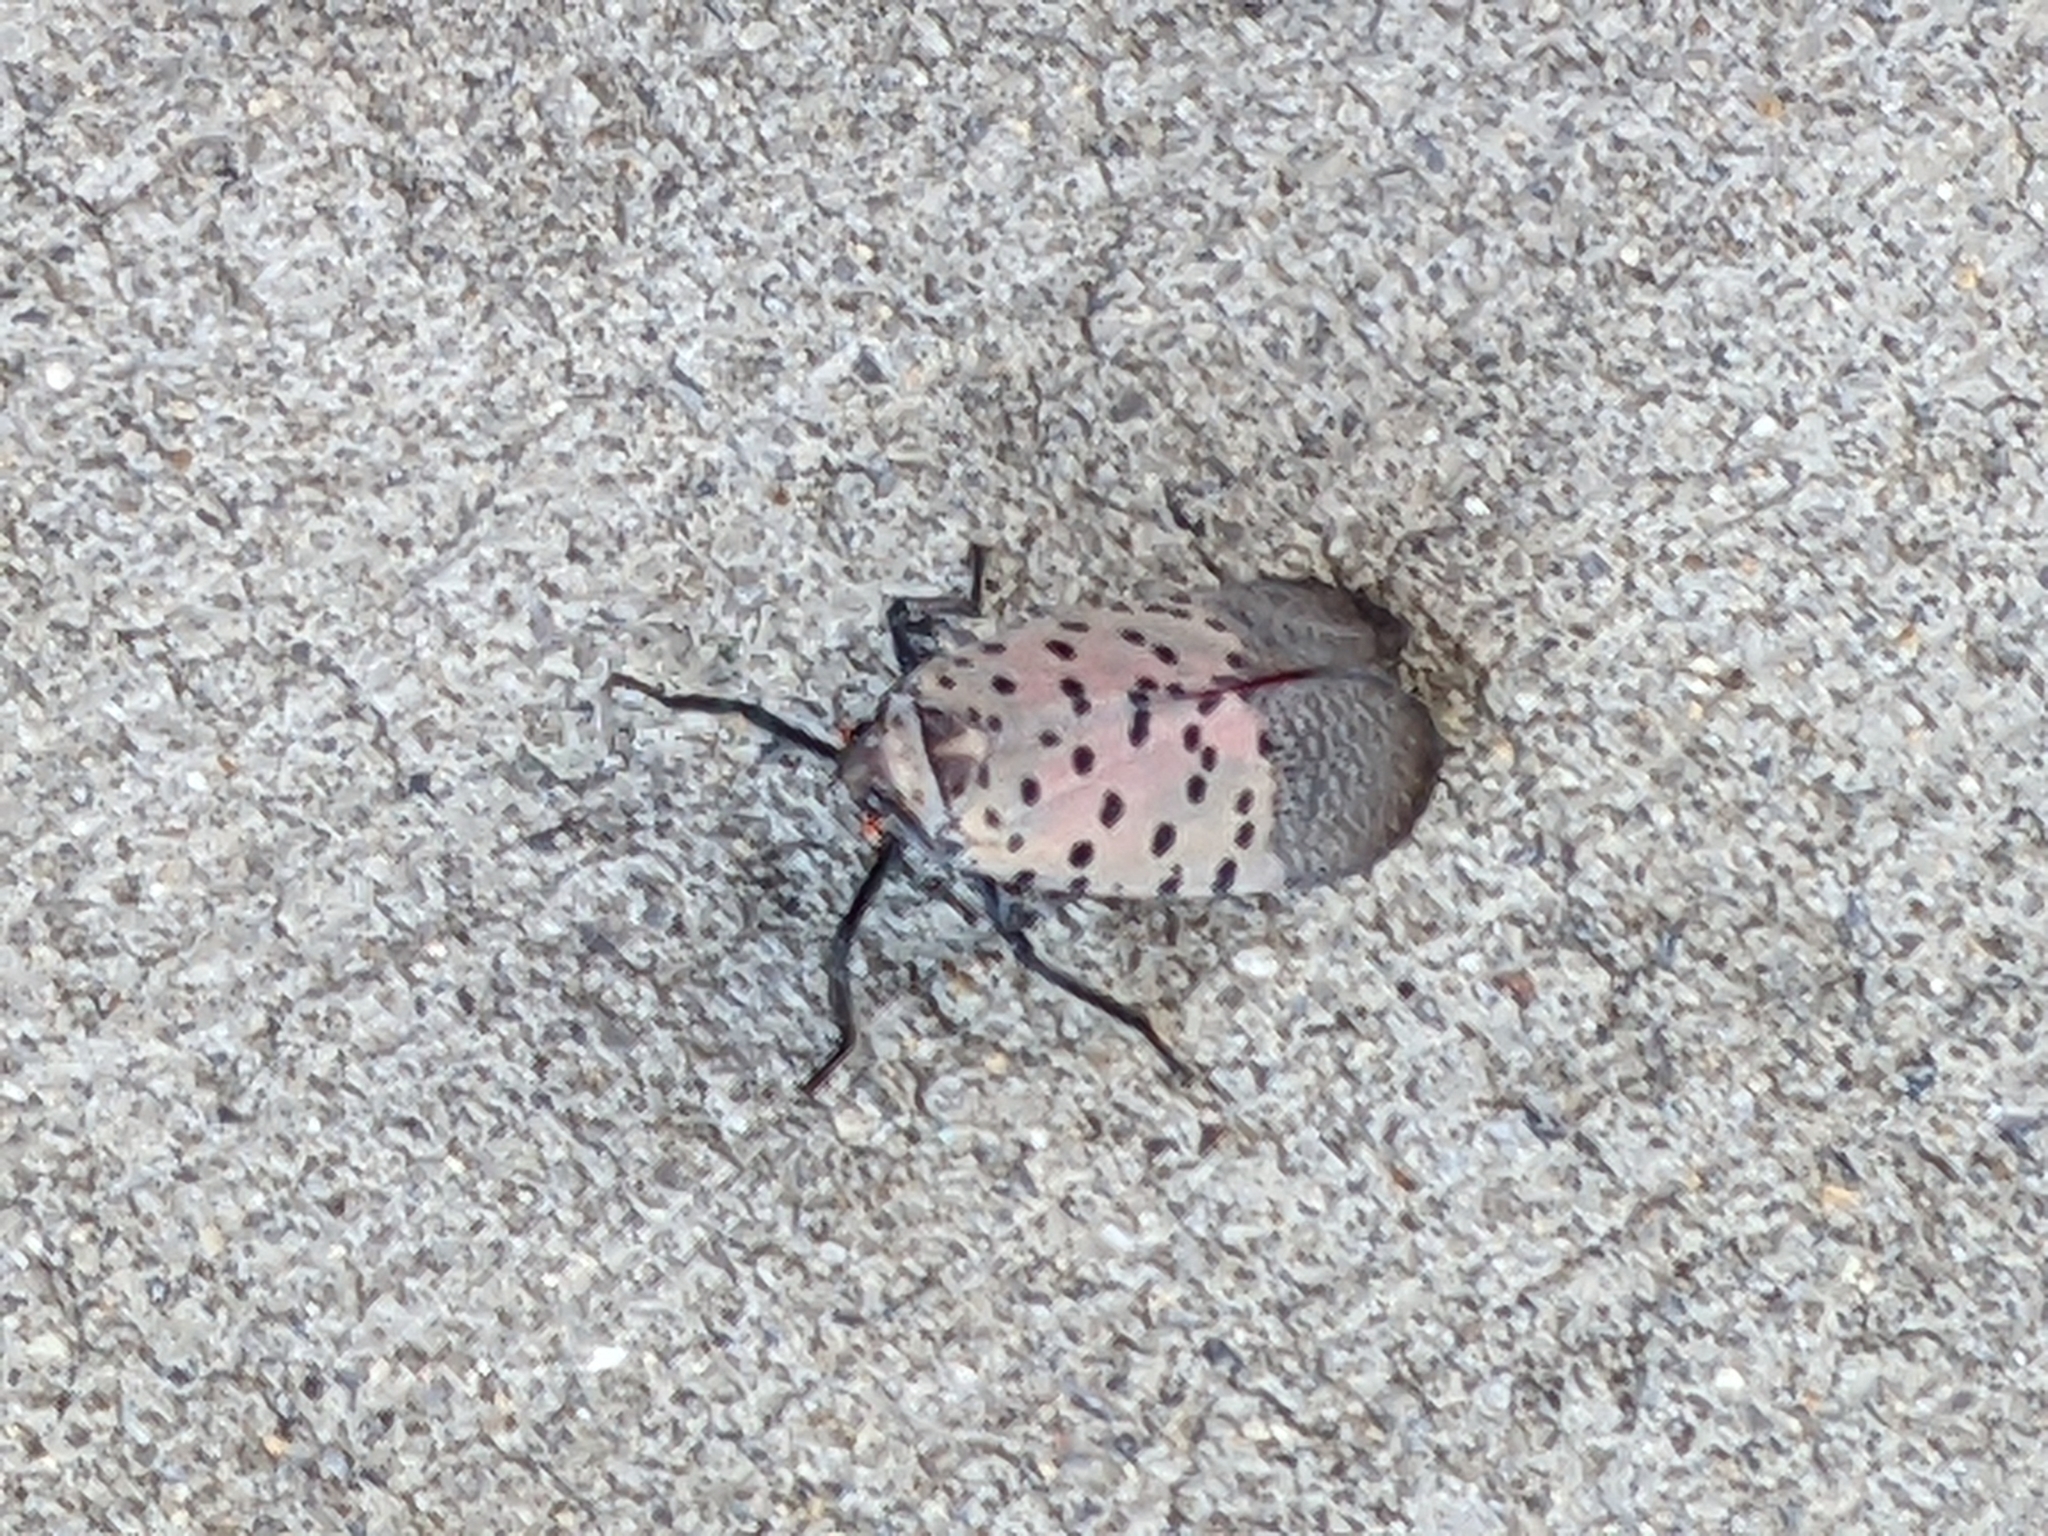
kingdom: Animalia
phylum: Arthropoda
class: Insecta
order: Hemiptera
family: Fulgoridae
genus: Lycorma
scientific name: Lycorma delicatula
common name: Spotted lanternfly
